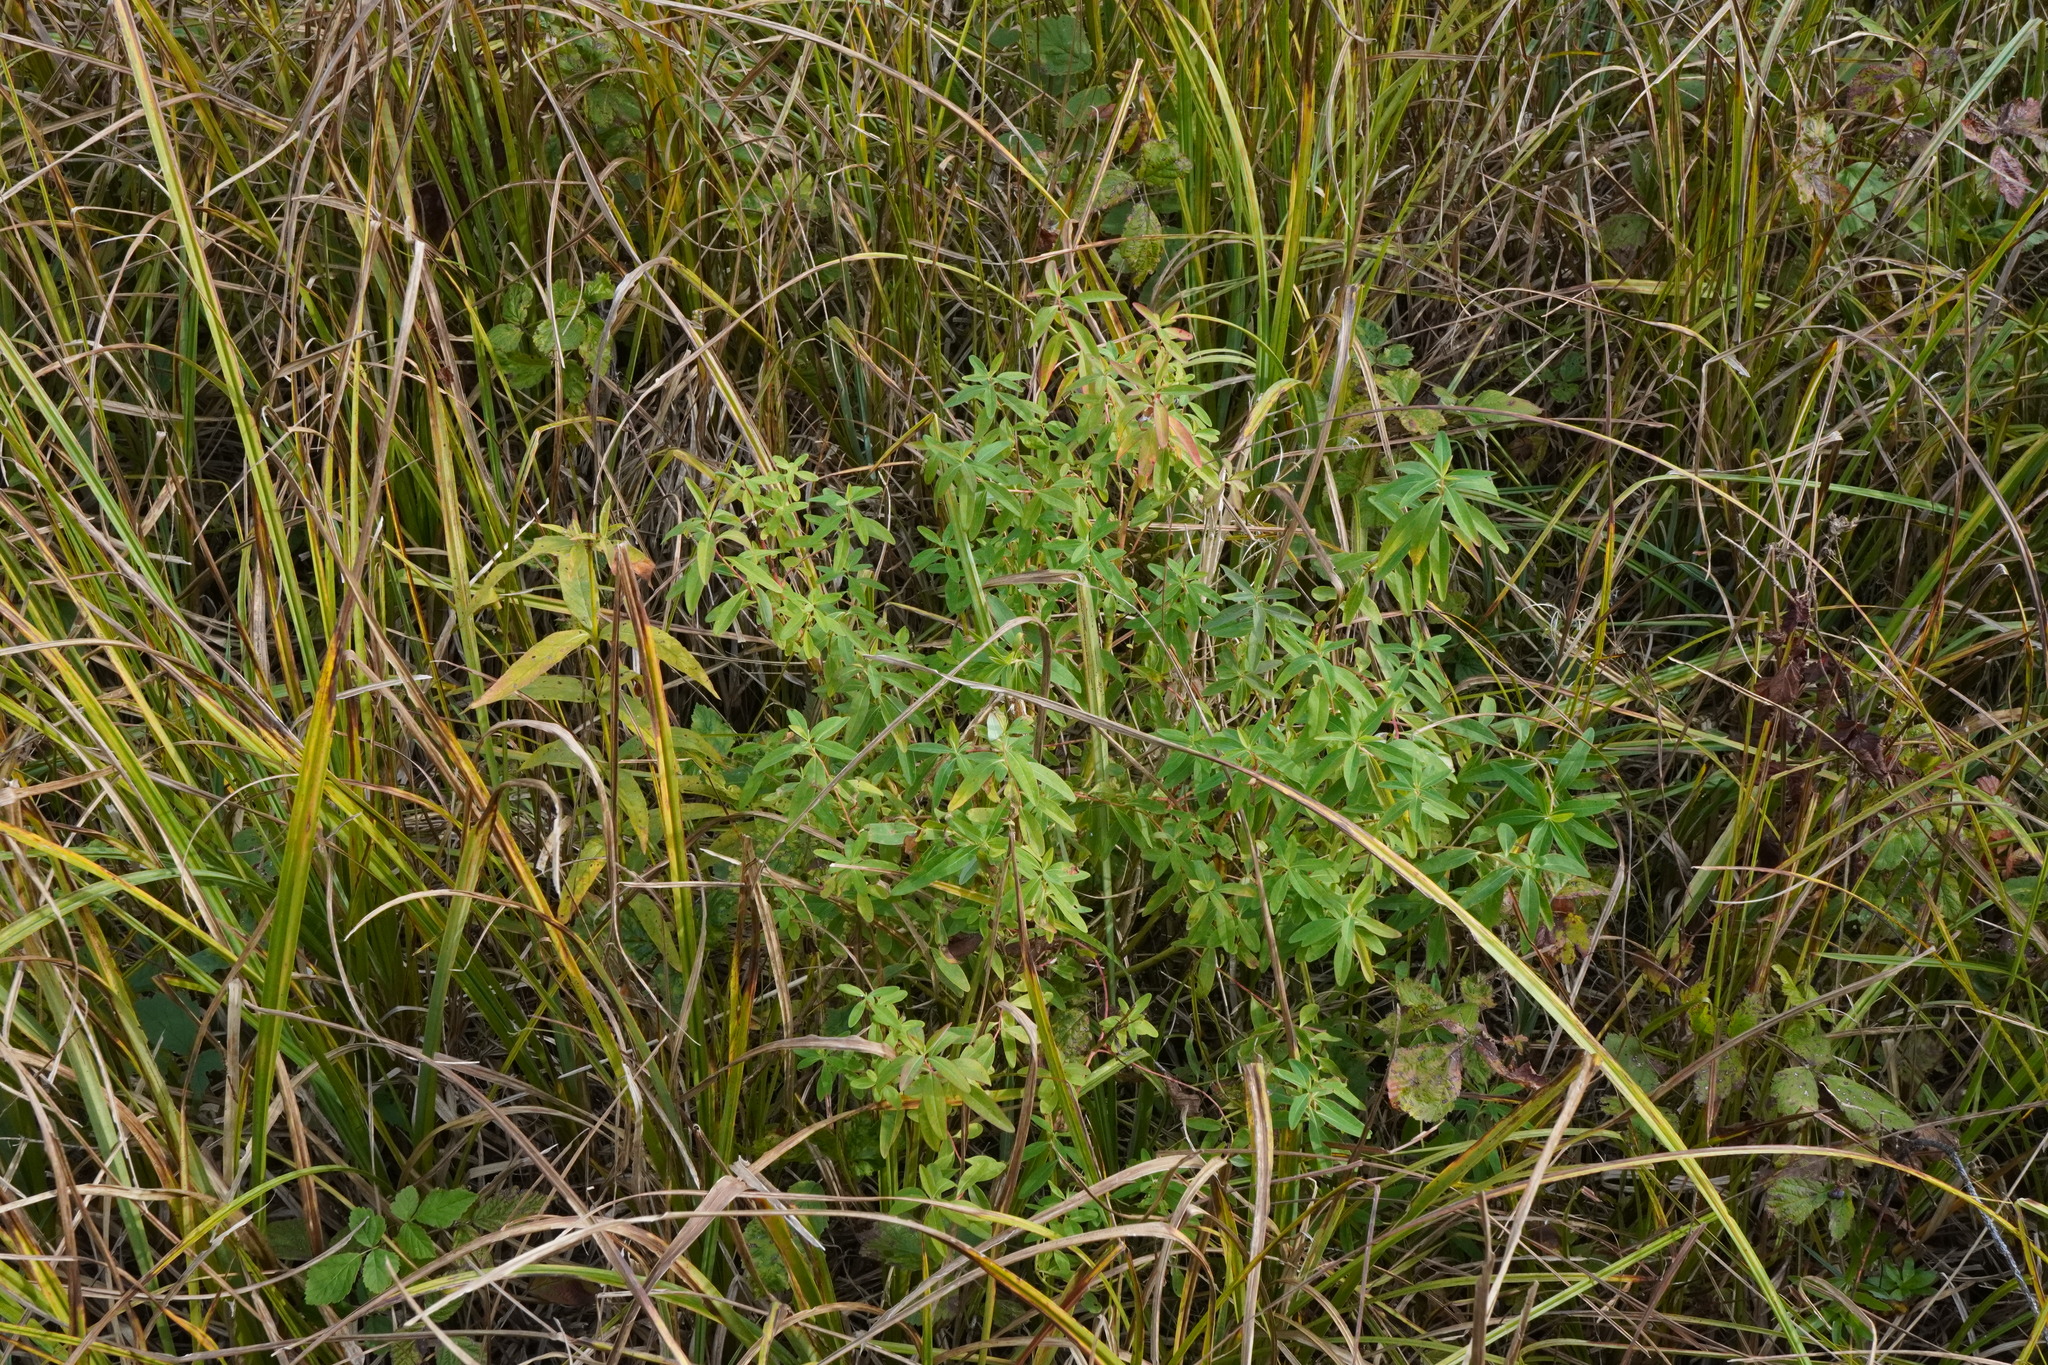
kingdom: Plantae
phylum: Tracheophyta
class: Magnoliopsida
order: Malpighiales
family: Euphorbiaceae
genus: Euphorbia
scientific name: Euphorbia palustris
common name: Marsh spurge
